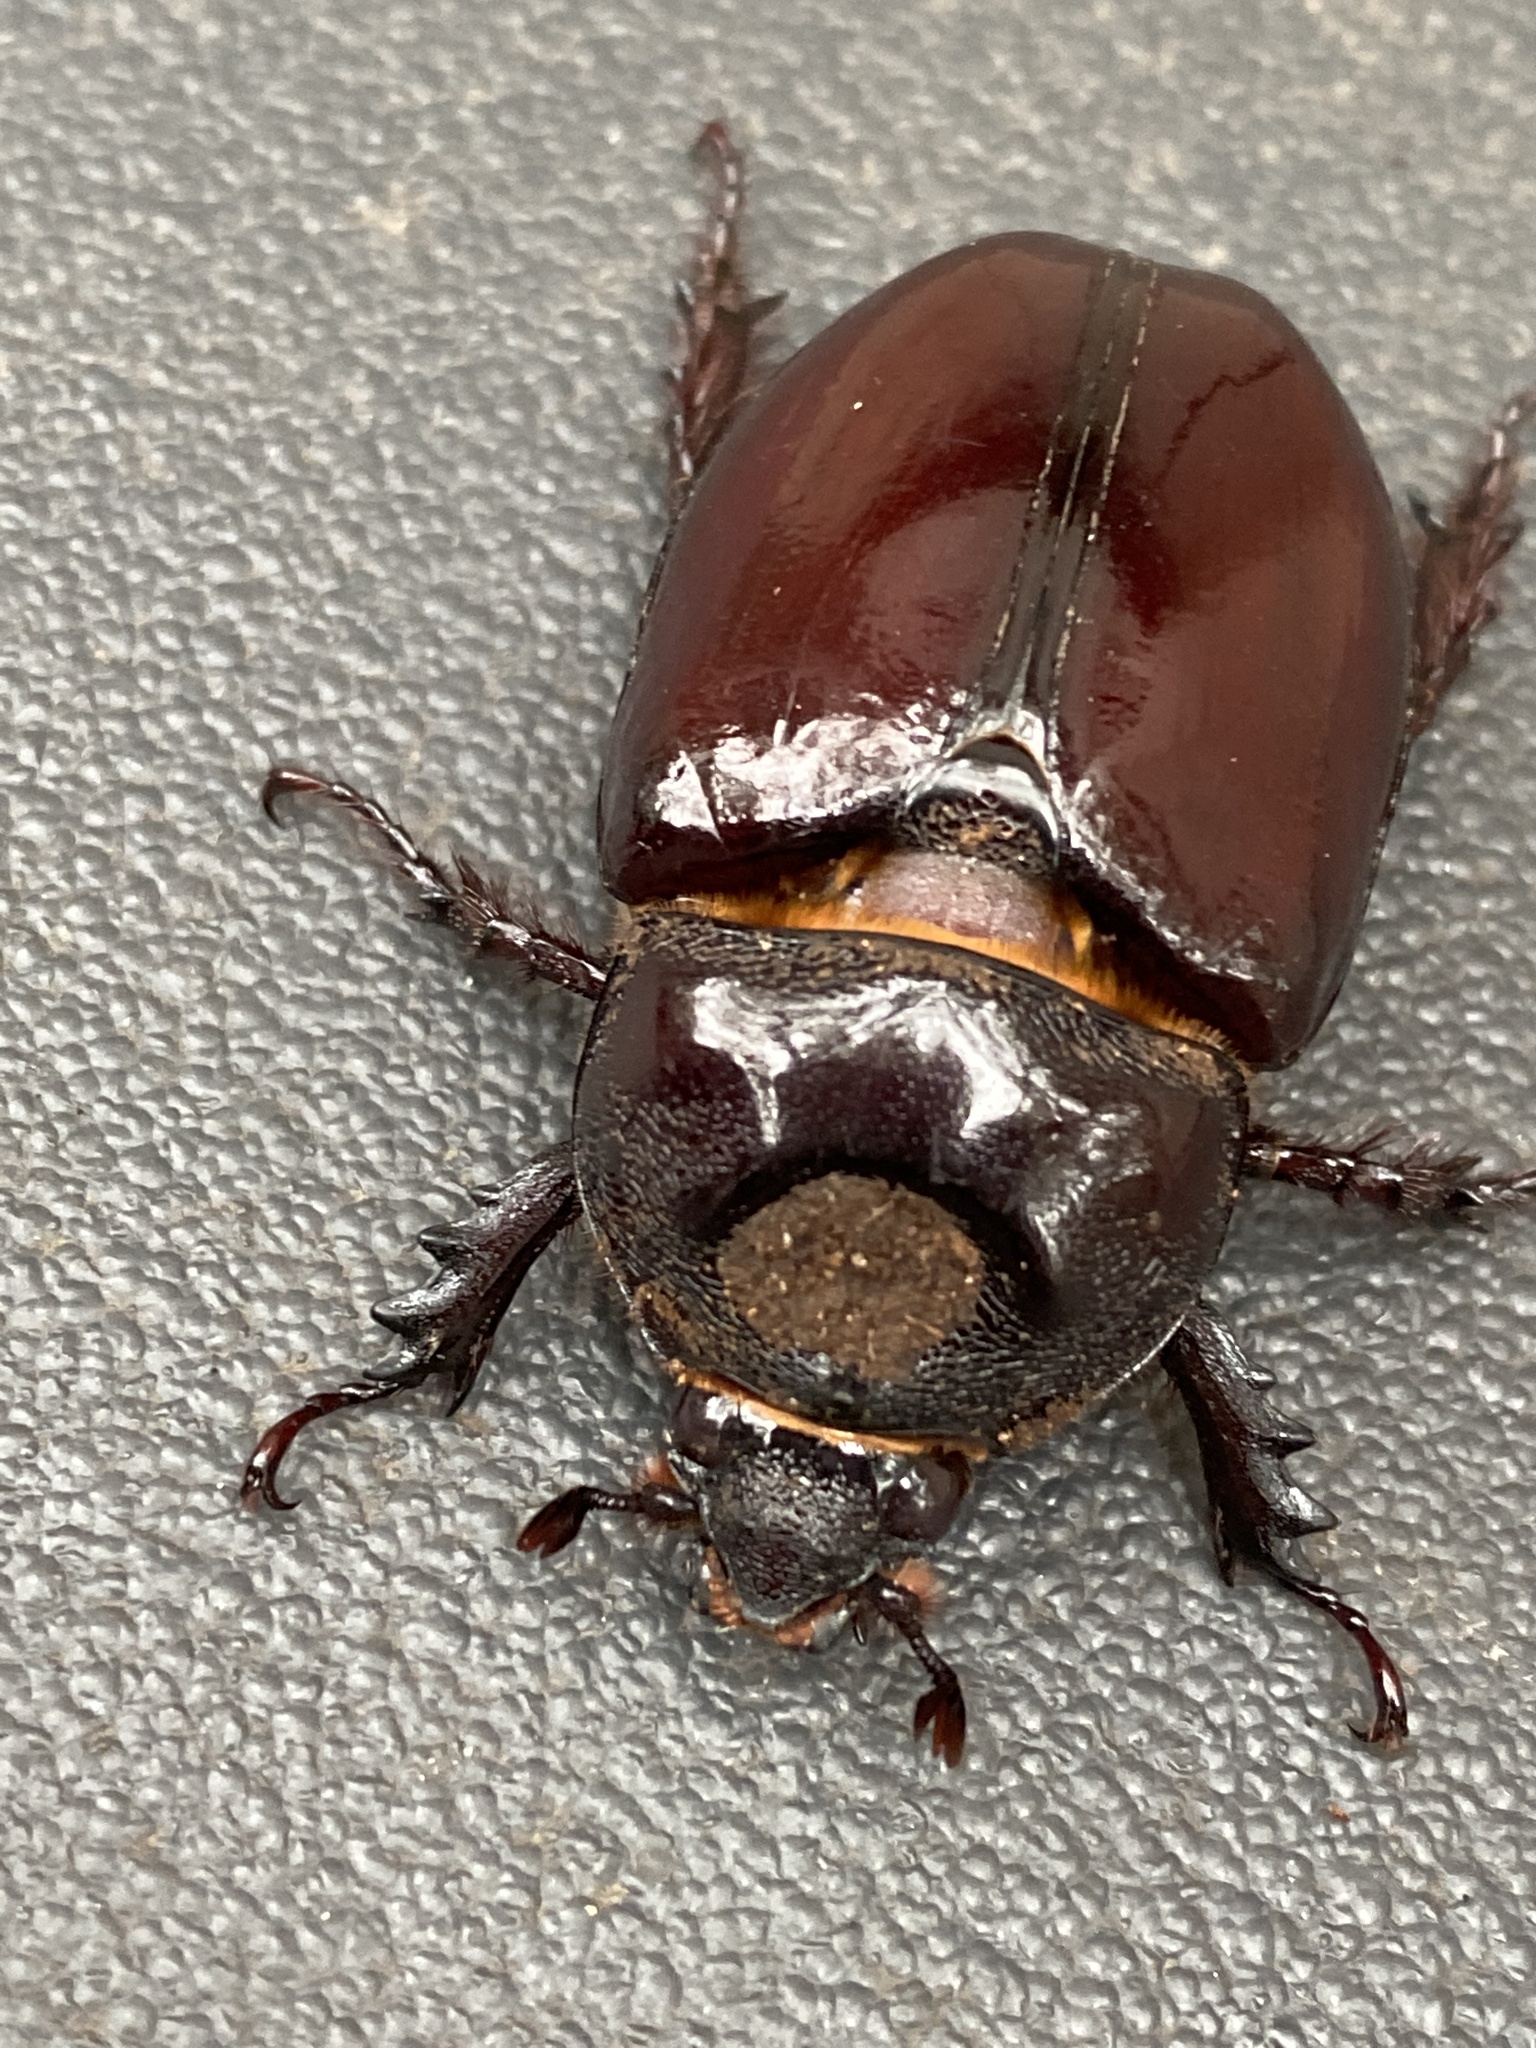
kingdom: Animalia
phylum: Arthropoda
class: Insecta
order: Coleoptera
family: Scarabaeidae
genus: Strategus
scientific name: Strategus aloeus
